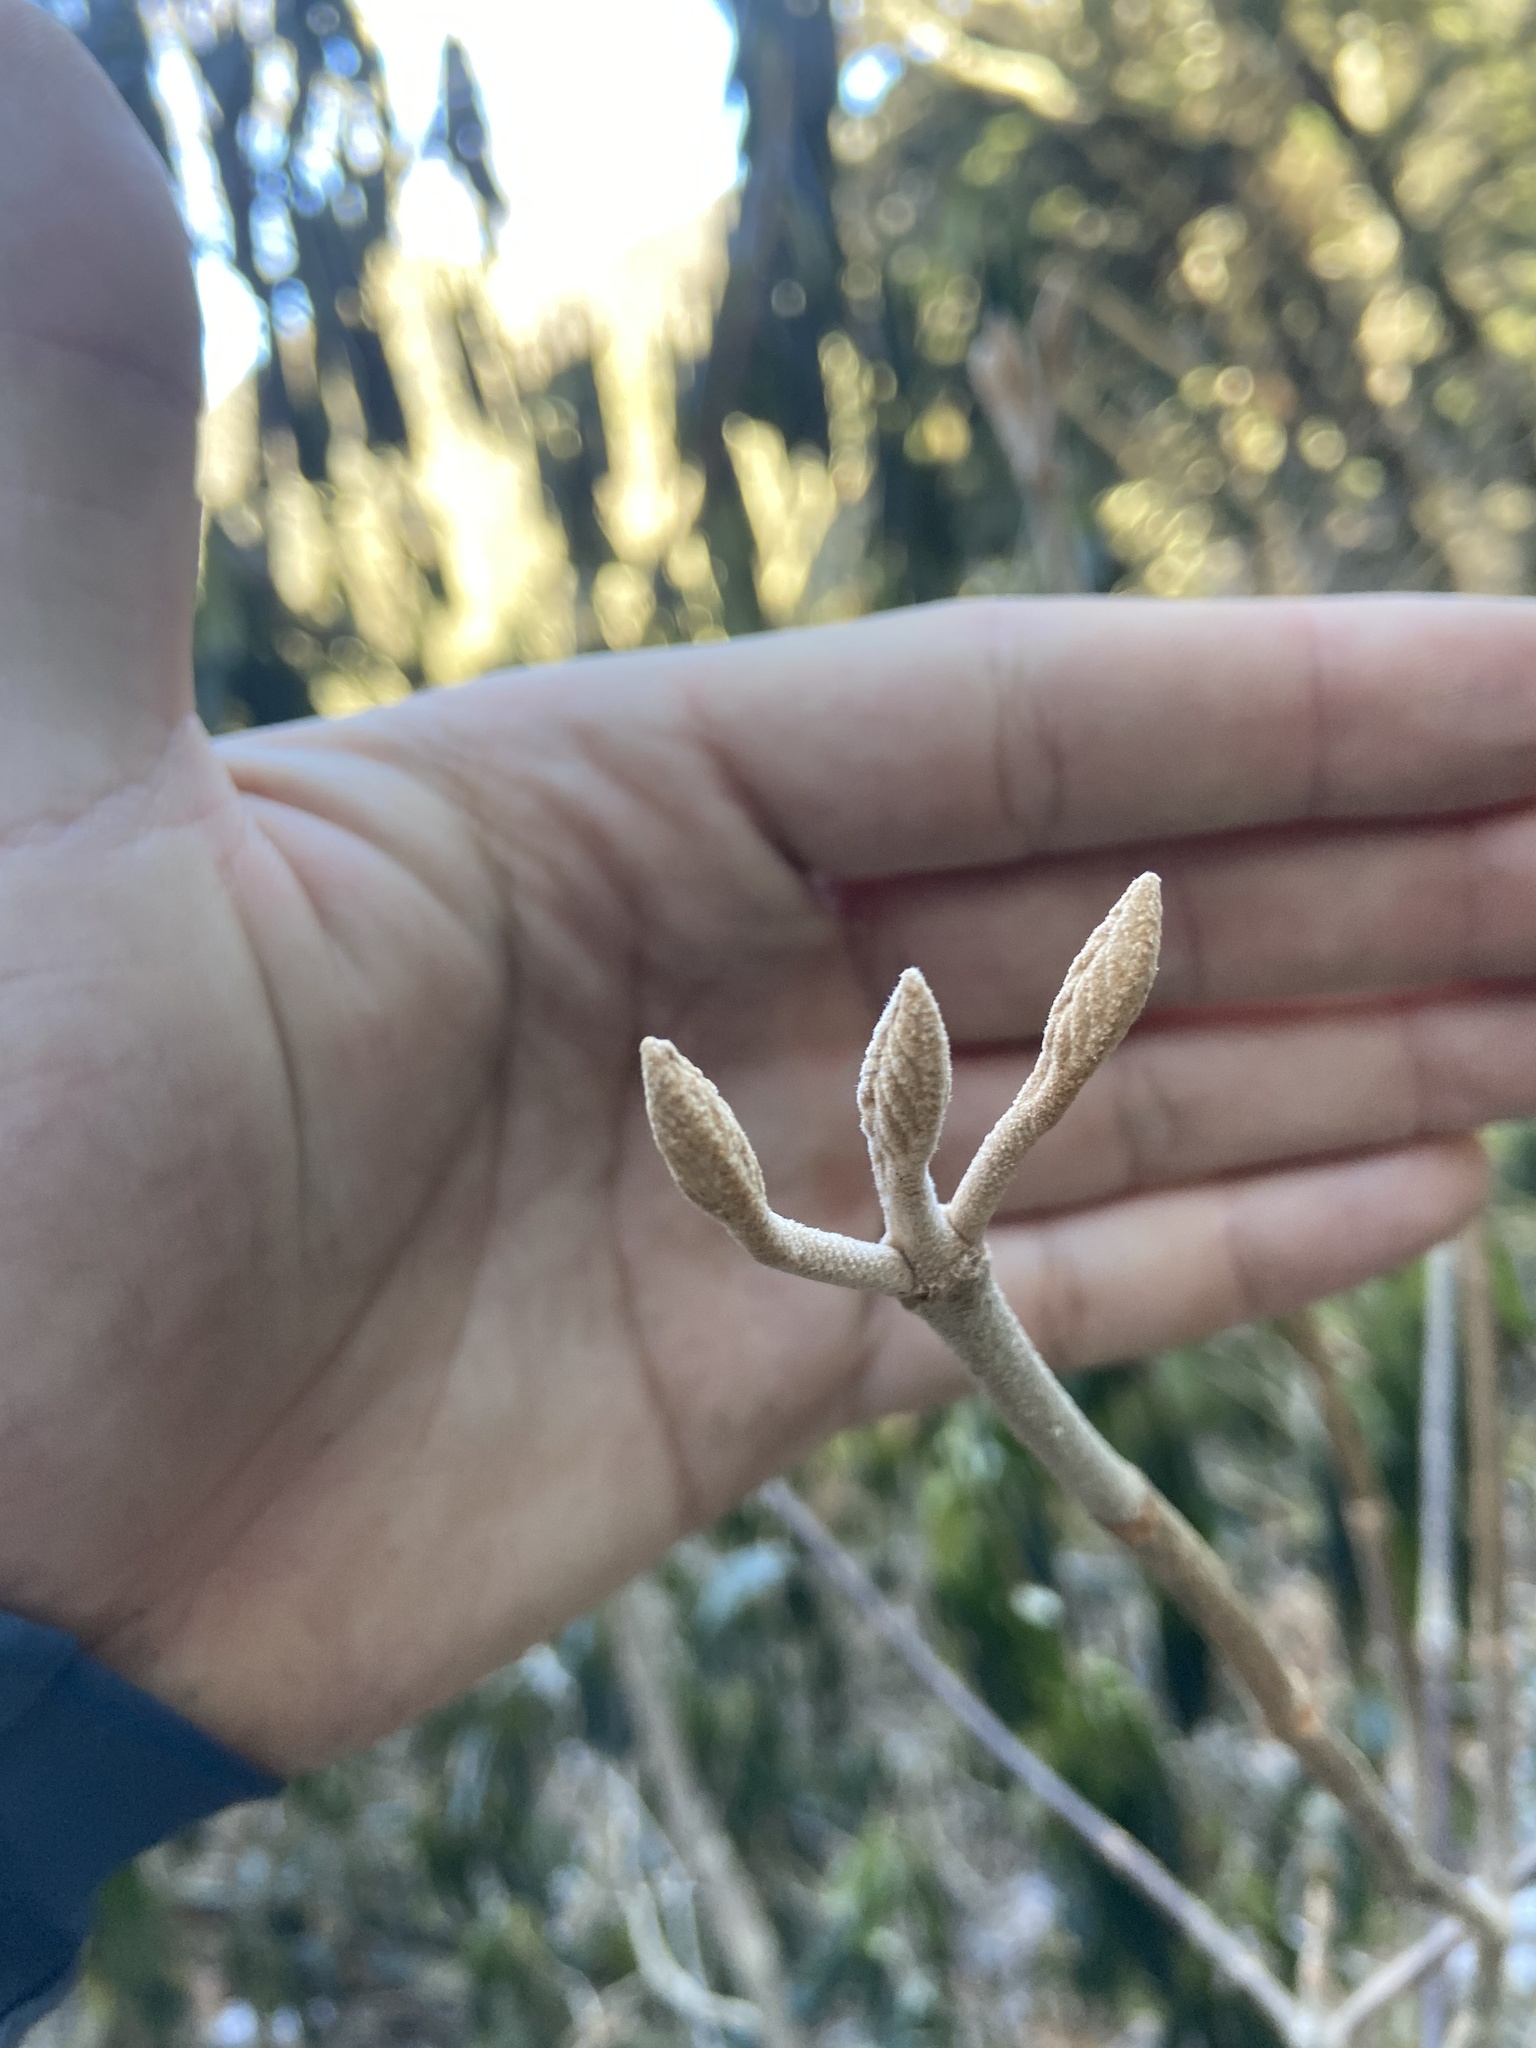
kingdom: Plantae
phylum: Tracheophyta
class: Magnoliopsida
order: Dipsacales
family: Viburnaceae
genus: Viburnum
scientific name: Viburnum lantanoides
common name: Hobblebush
